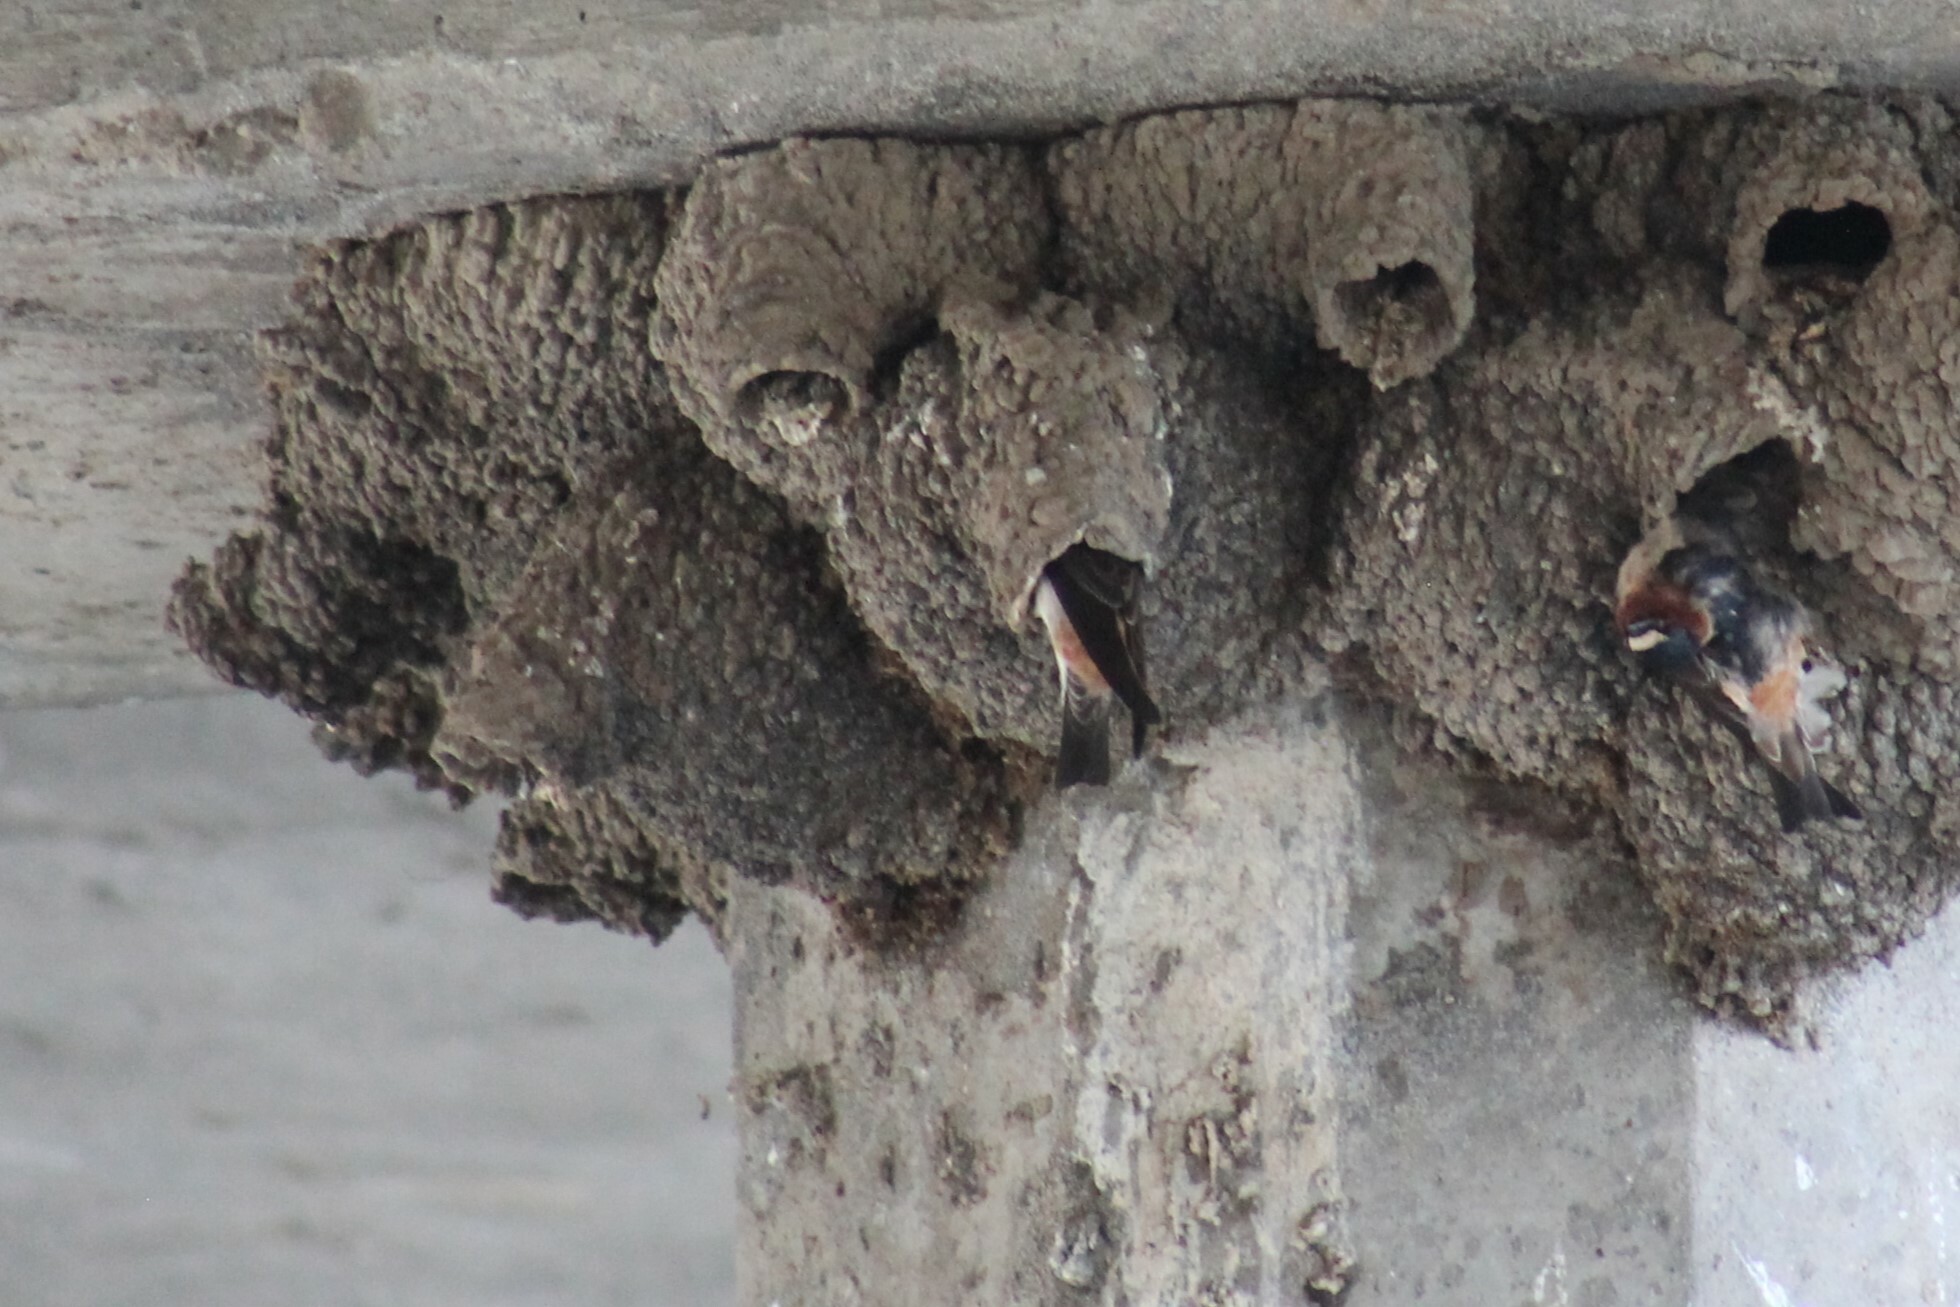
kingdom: Animalia
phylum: Chordata
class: Aves
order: Passeriformes
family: Hirundinidae
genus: Petrochelidon
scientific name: Petrochelidon pyrrhonota
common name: American cliff swallow
